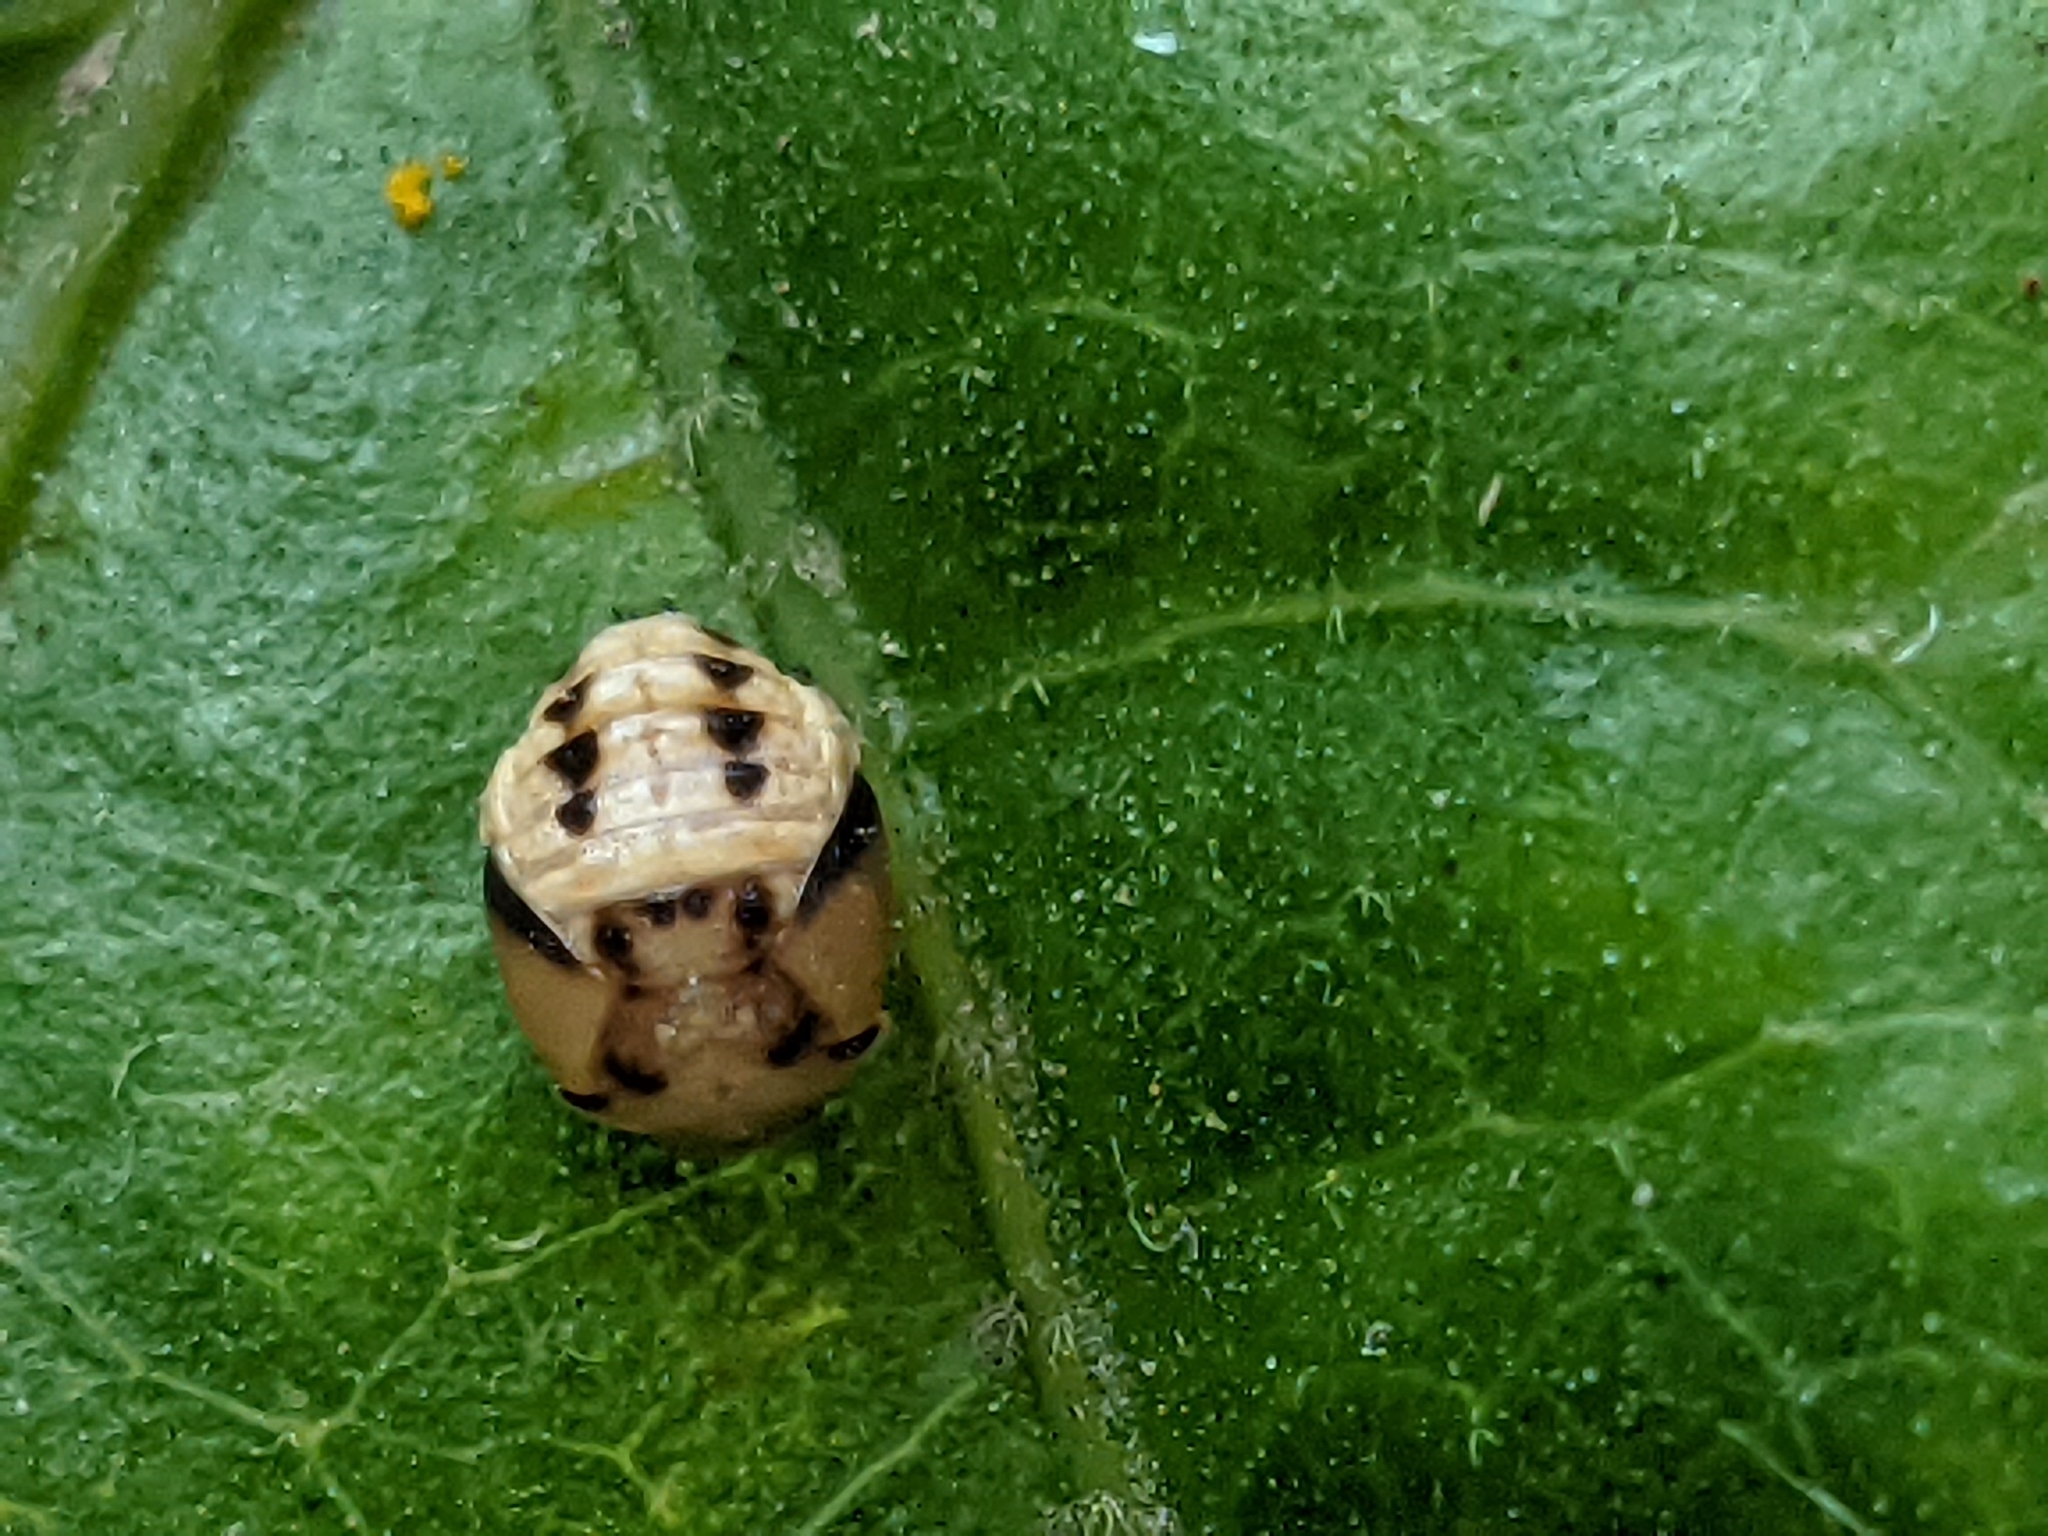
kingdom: Animalia
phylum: Arthropoda
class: Insecta
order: Coleoptera
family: Coccinellidae
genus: Cheilomenes
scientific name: Cheilomenes sexmaculata
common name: Ladybird beetle
